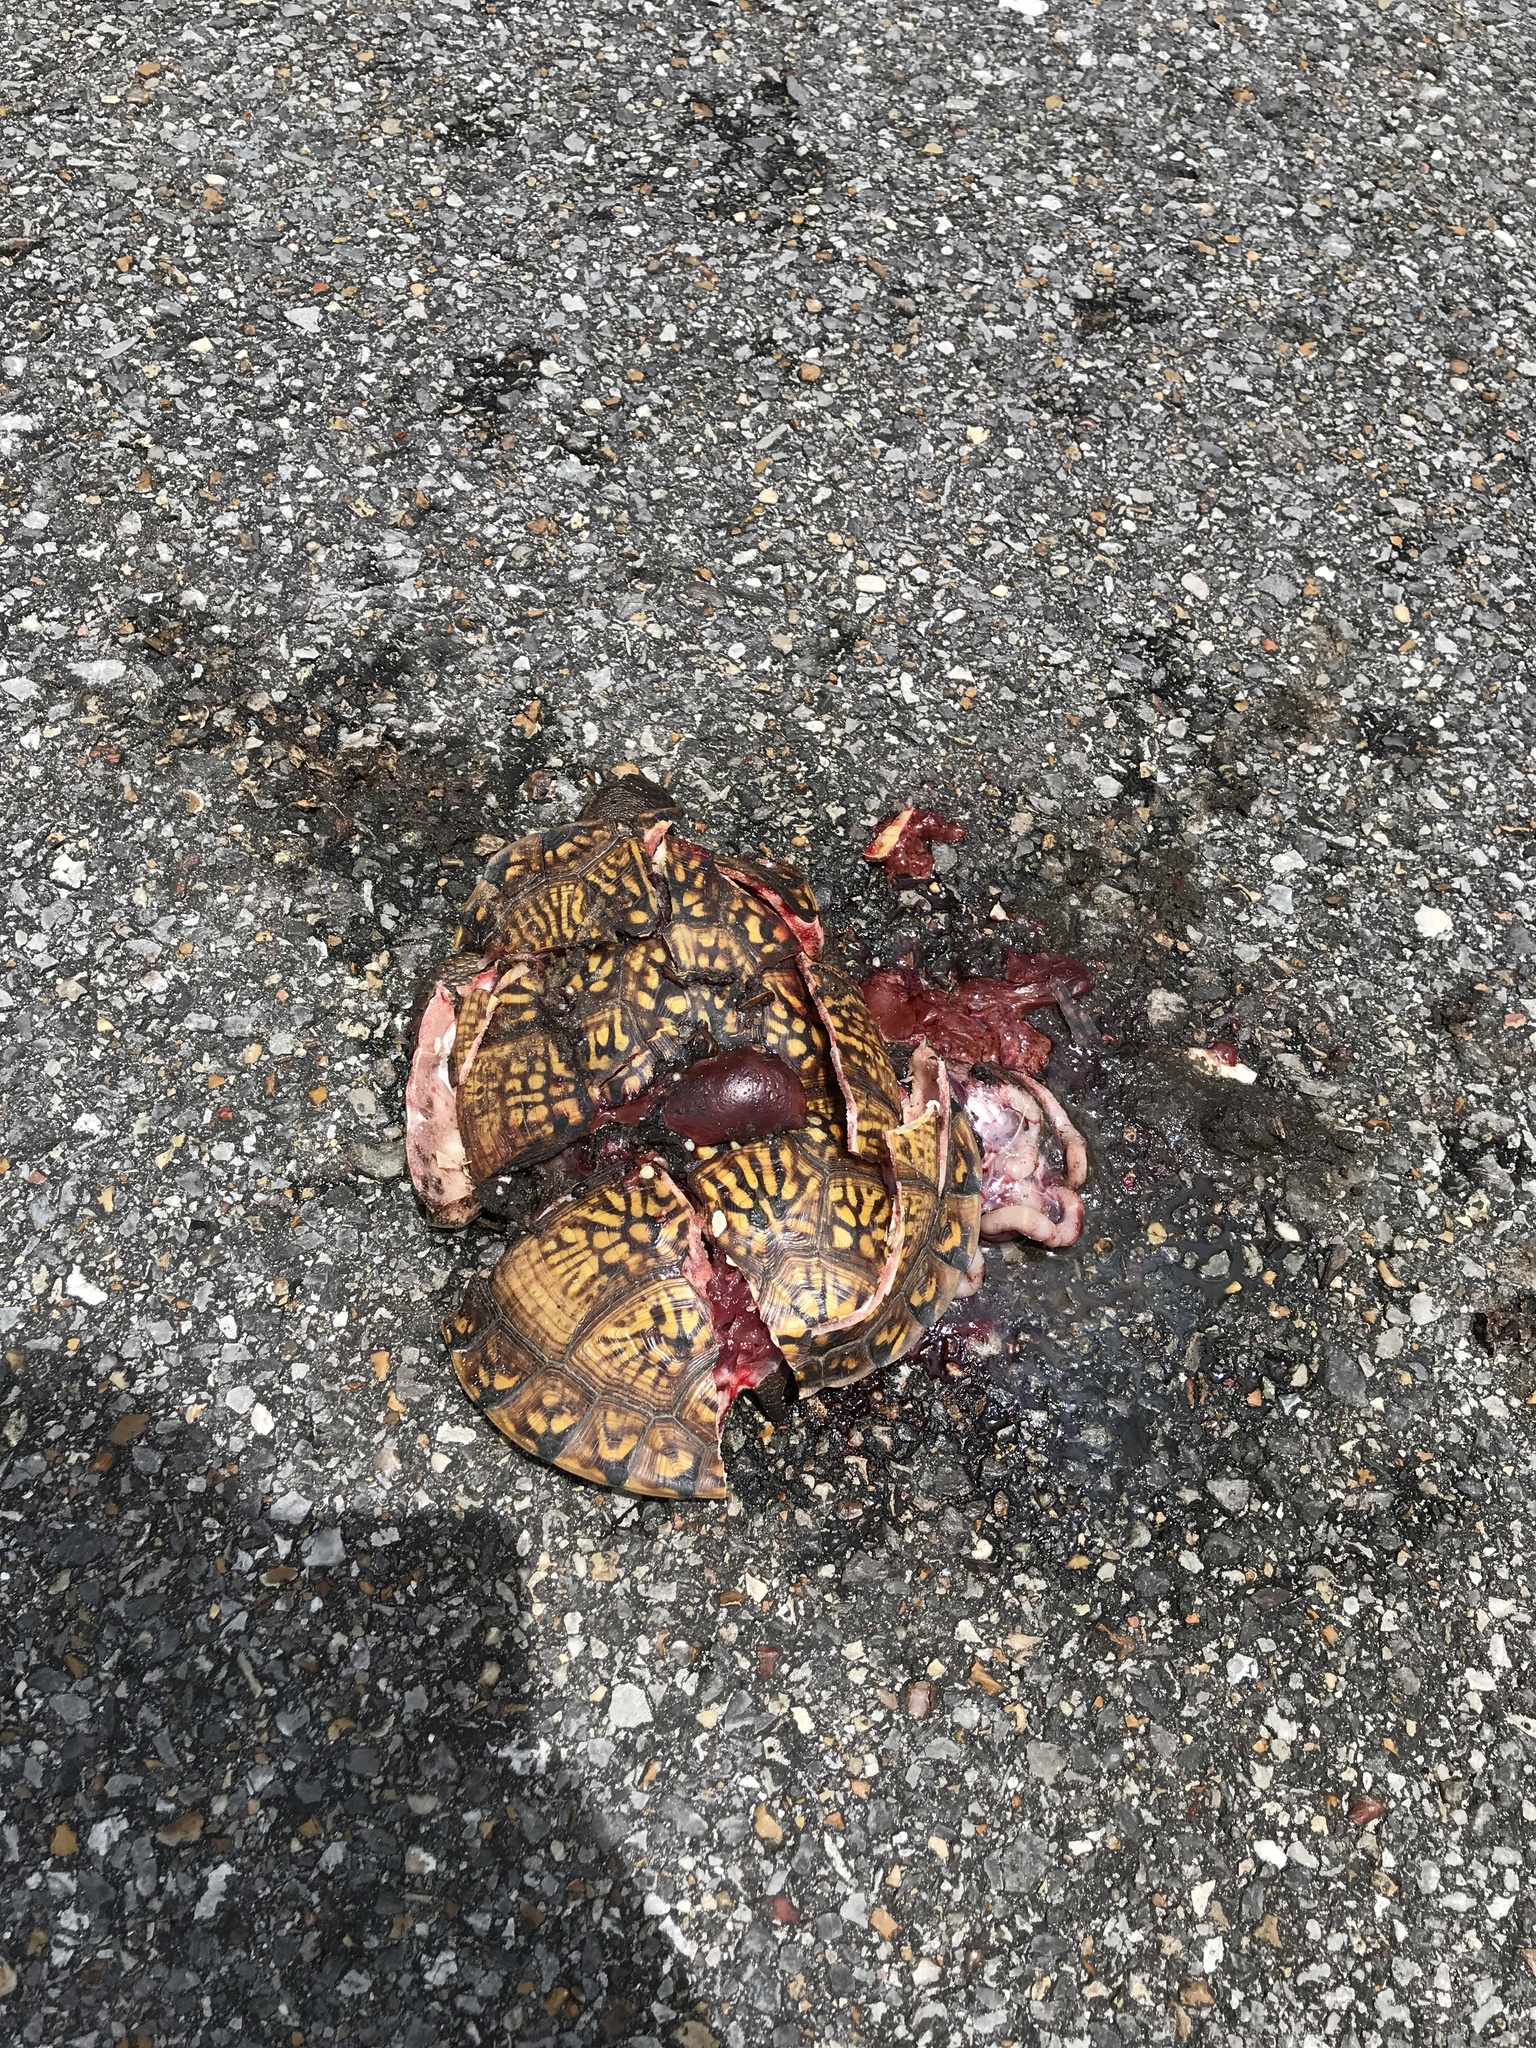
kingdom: Animalia
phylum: Chordata
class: Testudines
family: Emydidae
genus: Terrapene
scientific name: Terrapene carolina
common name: Common box turtle
